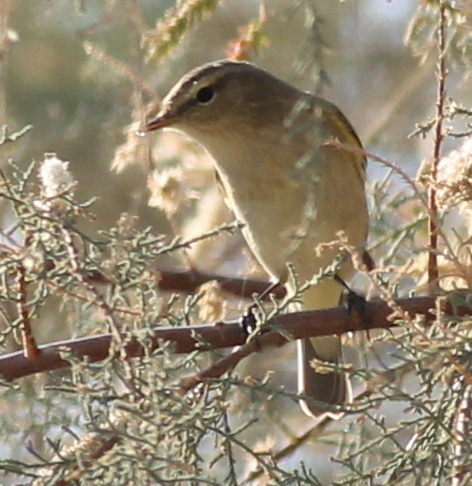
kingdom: Animalia
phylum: Chordata
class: Aves
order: Passeriformes
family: Phylloscopidae
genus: Phylloscopus
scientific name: Phylloscopus collybita
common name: Common chiffchaff
